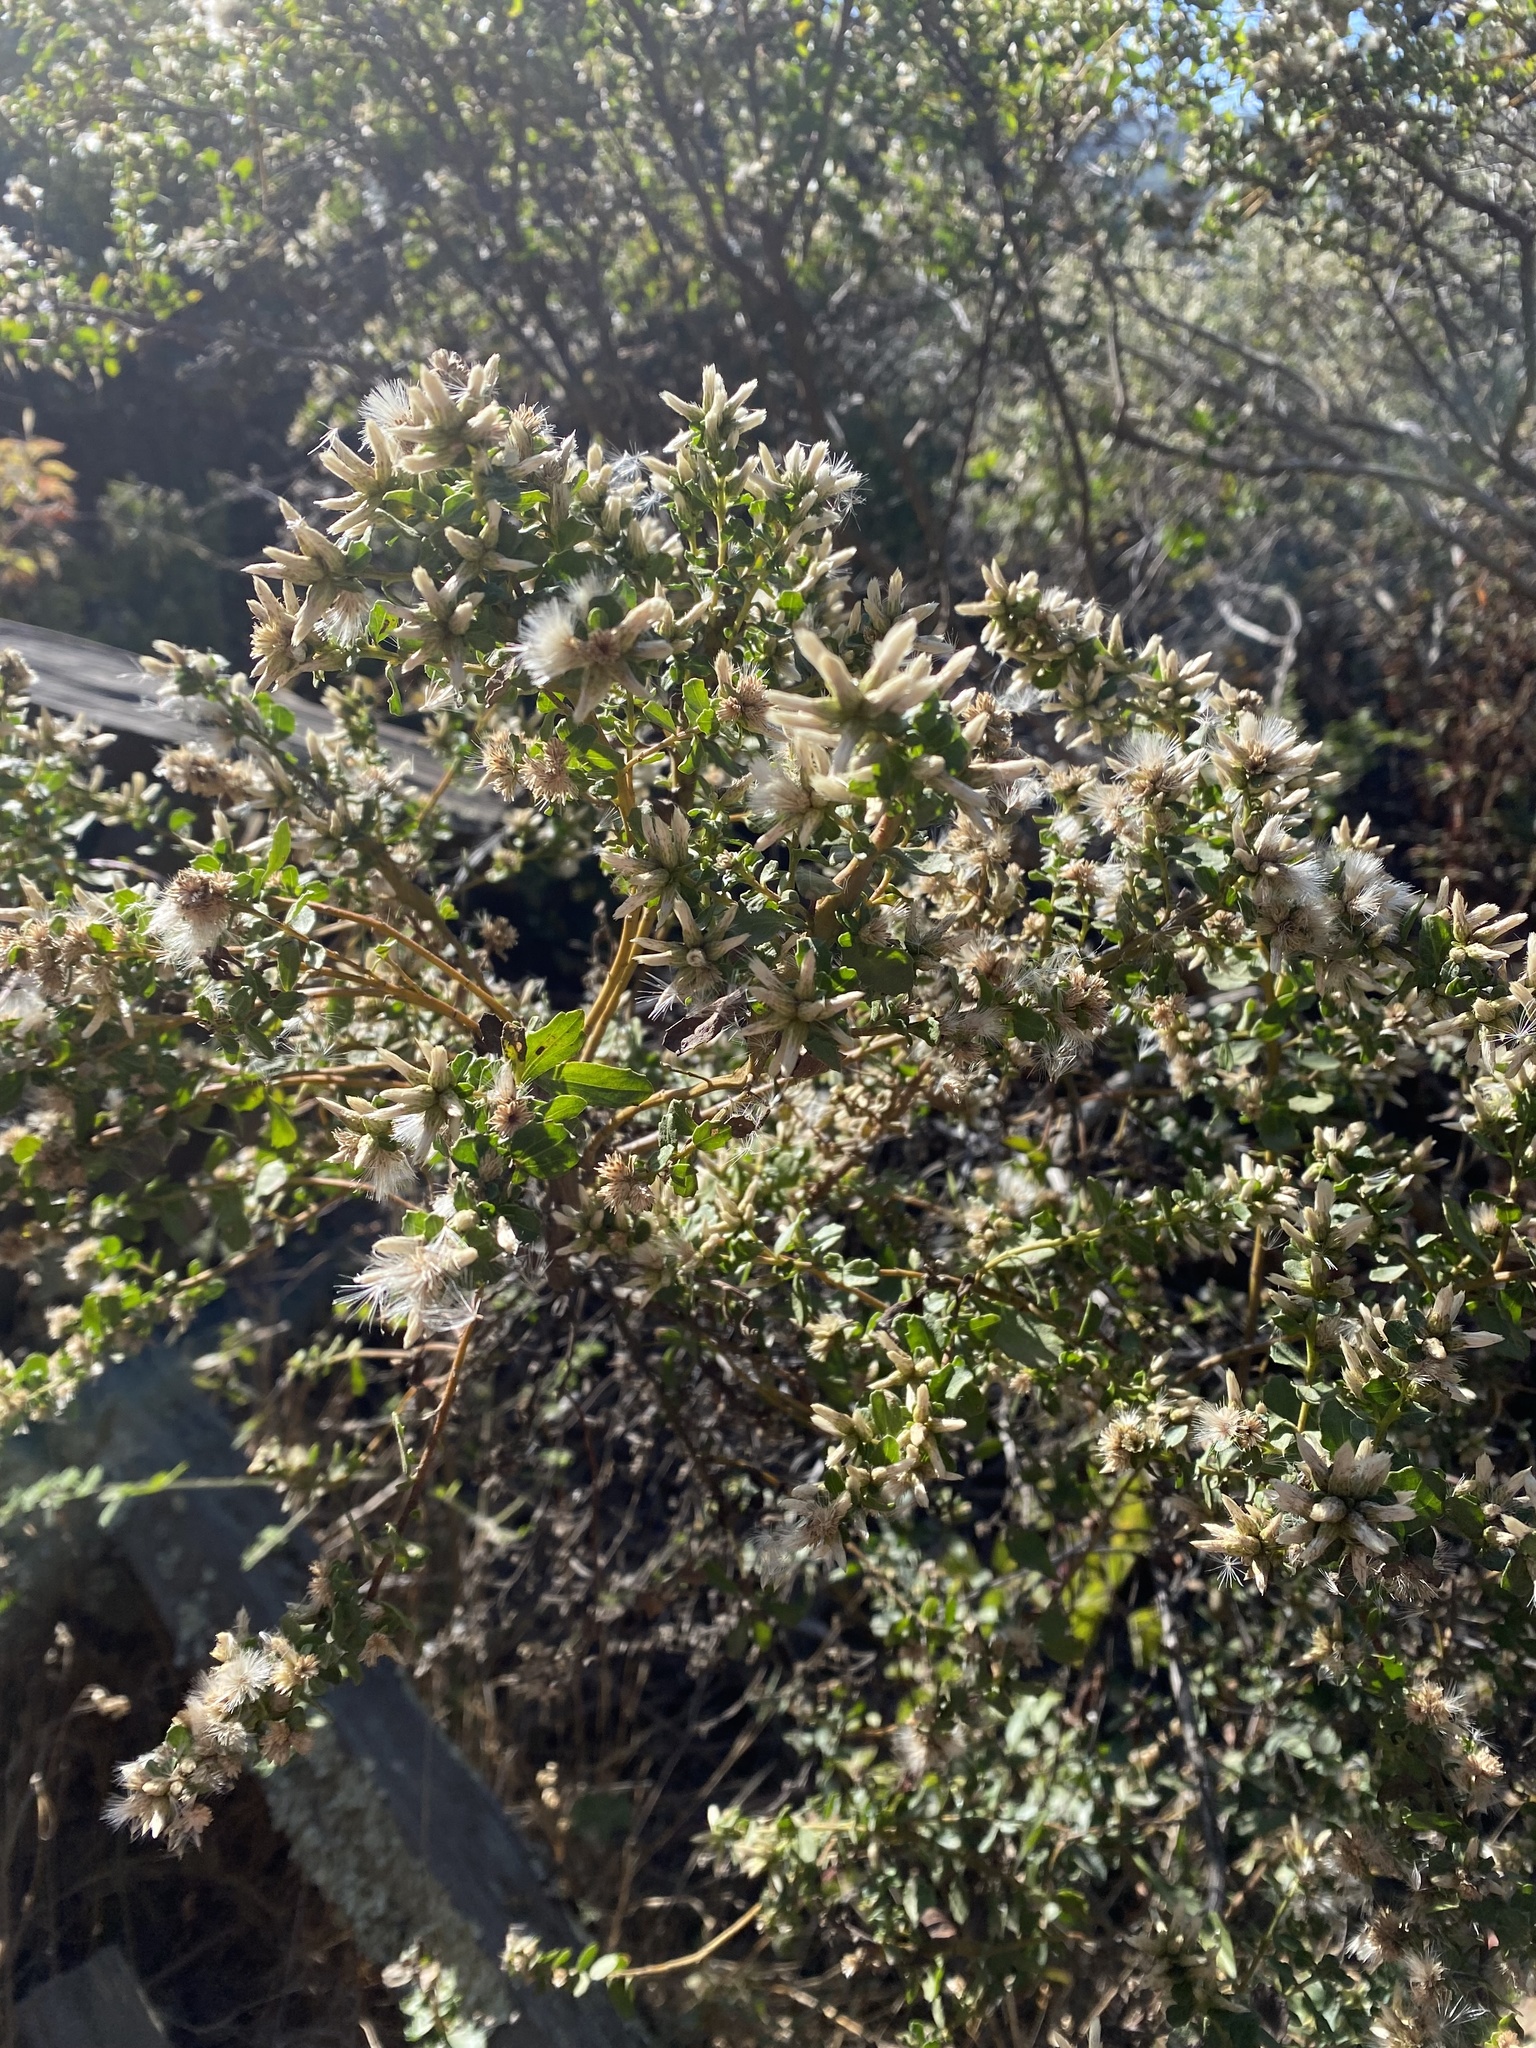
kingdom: Plantae
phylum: Tracheophyta
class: Magnoliopsida
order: Asterales
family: Asteraceae
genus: Baccharis
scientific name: Baccharis pilularis
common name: Coyotebrush
